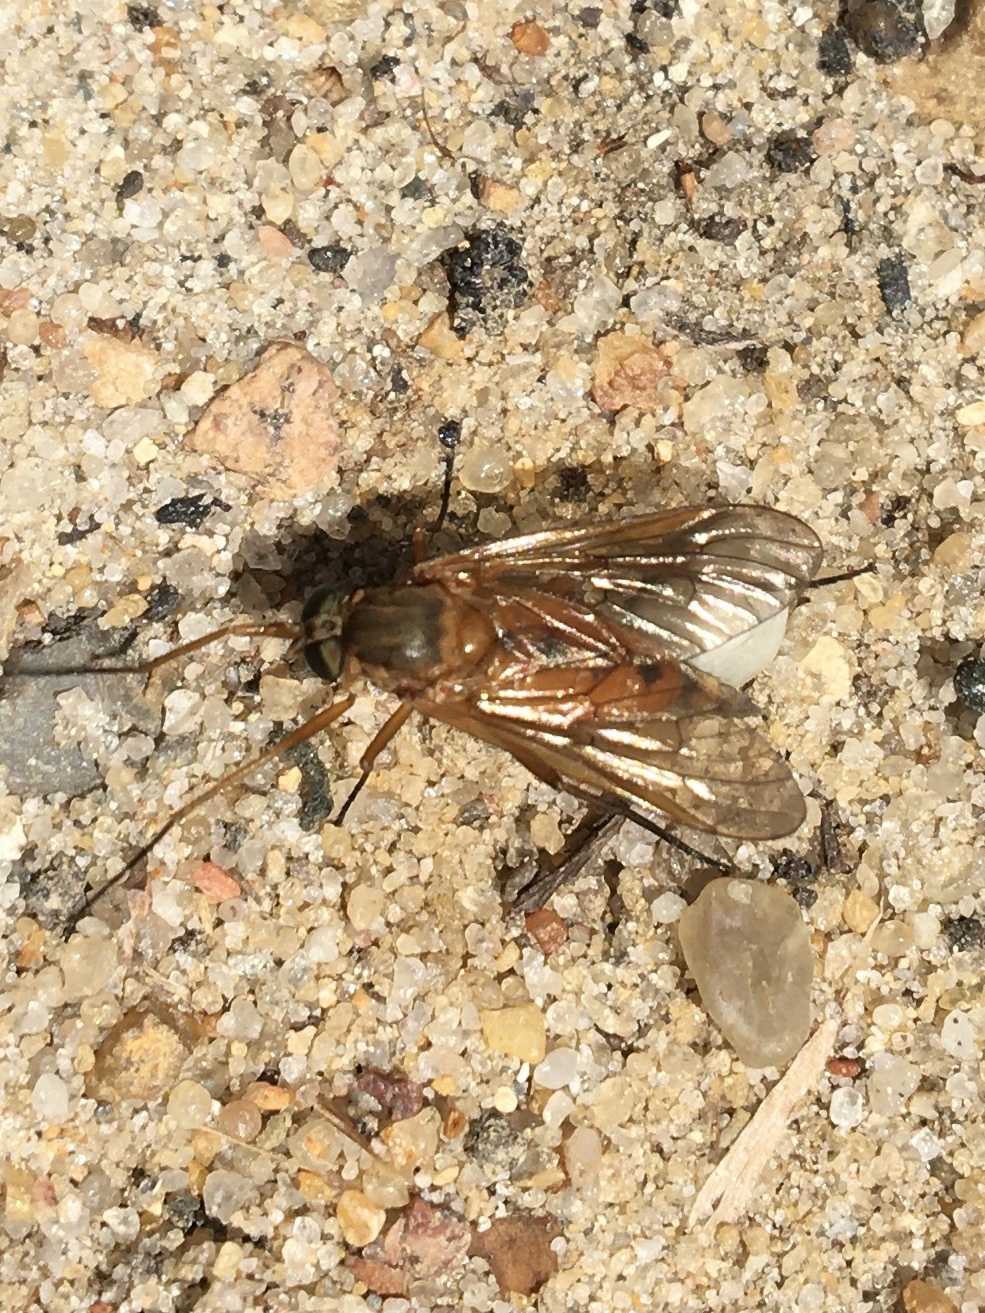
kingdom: Animalia
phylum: Arthropoda
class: Insecta
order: Diptera
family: Rhagionidae
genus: Rhagio
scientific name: Rhagio tringaria
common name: Marsh snipefly
